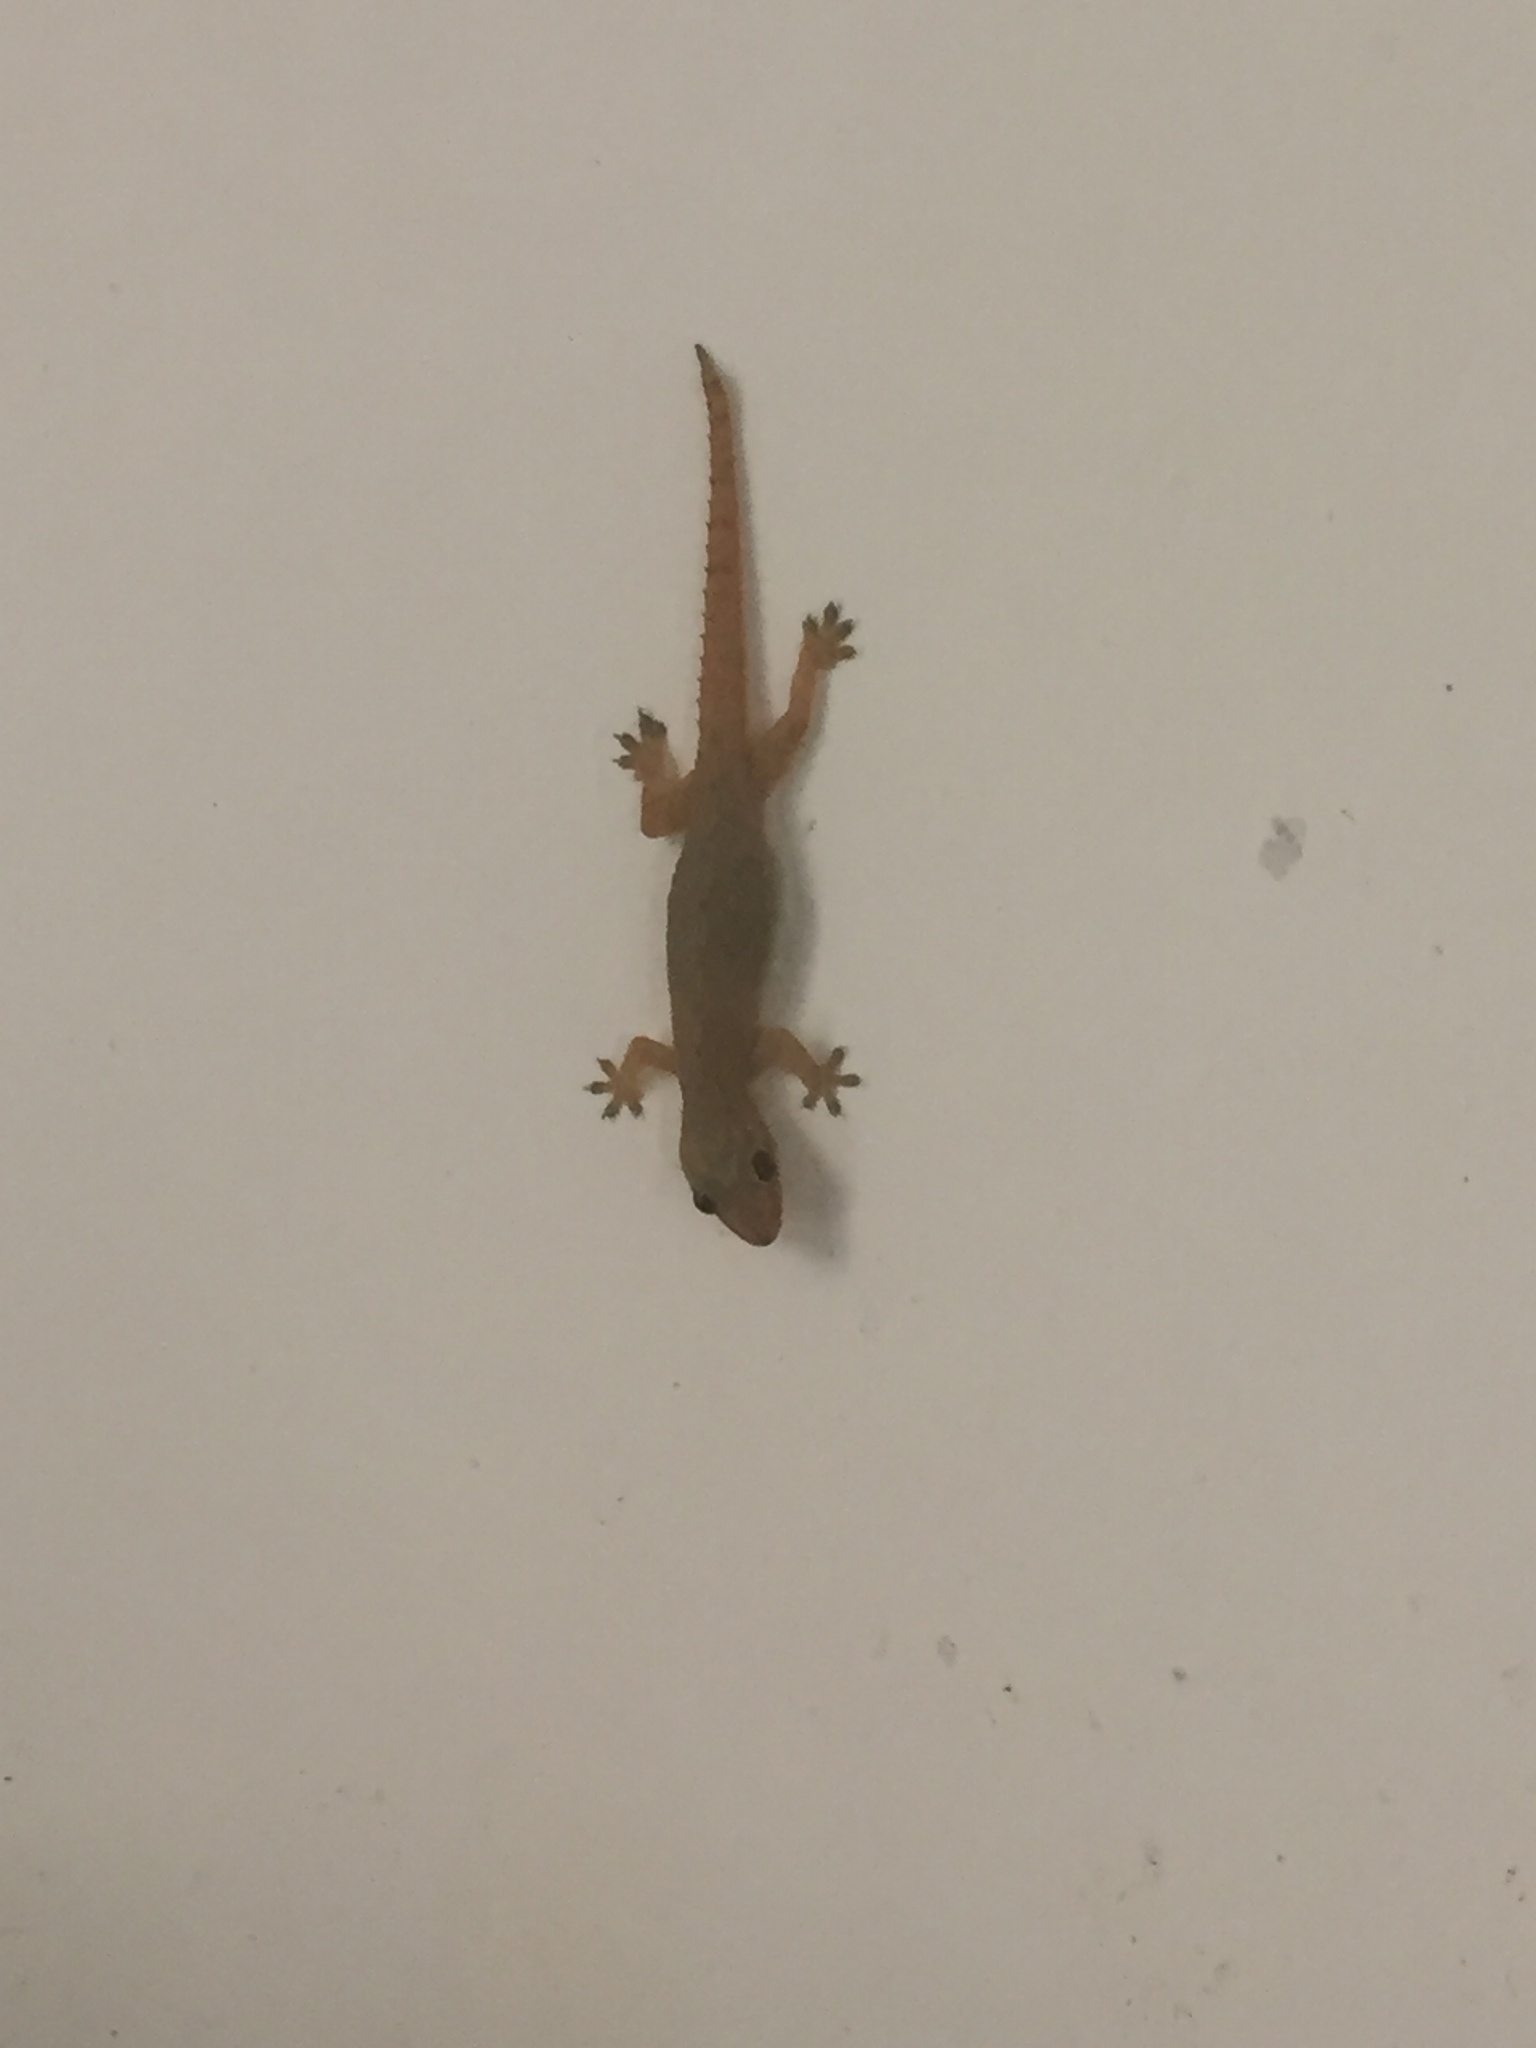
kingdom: Animalia
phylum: Chordata
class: Squamata
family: Gekkonidae
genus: Hemidactylus
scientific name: Hemidactylus frenatus
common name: Common house gecko
